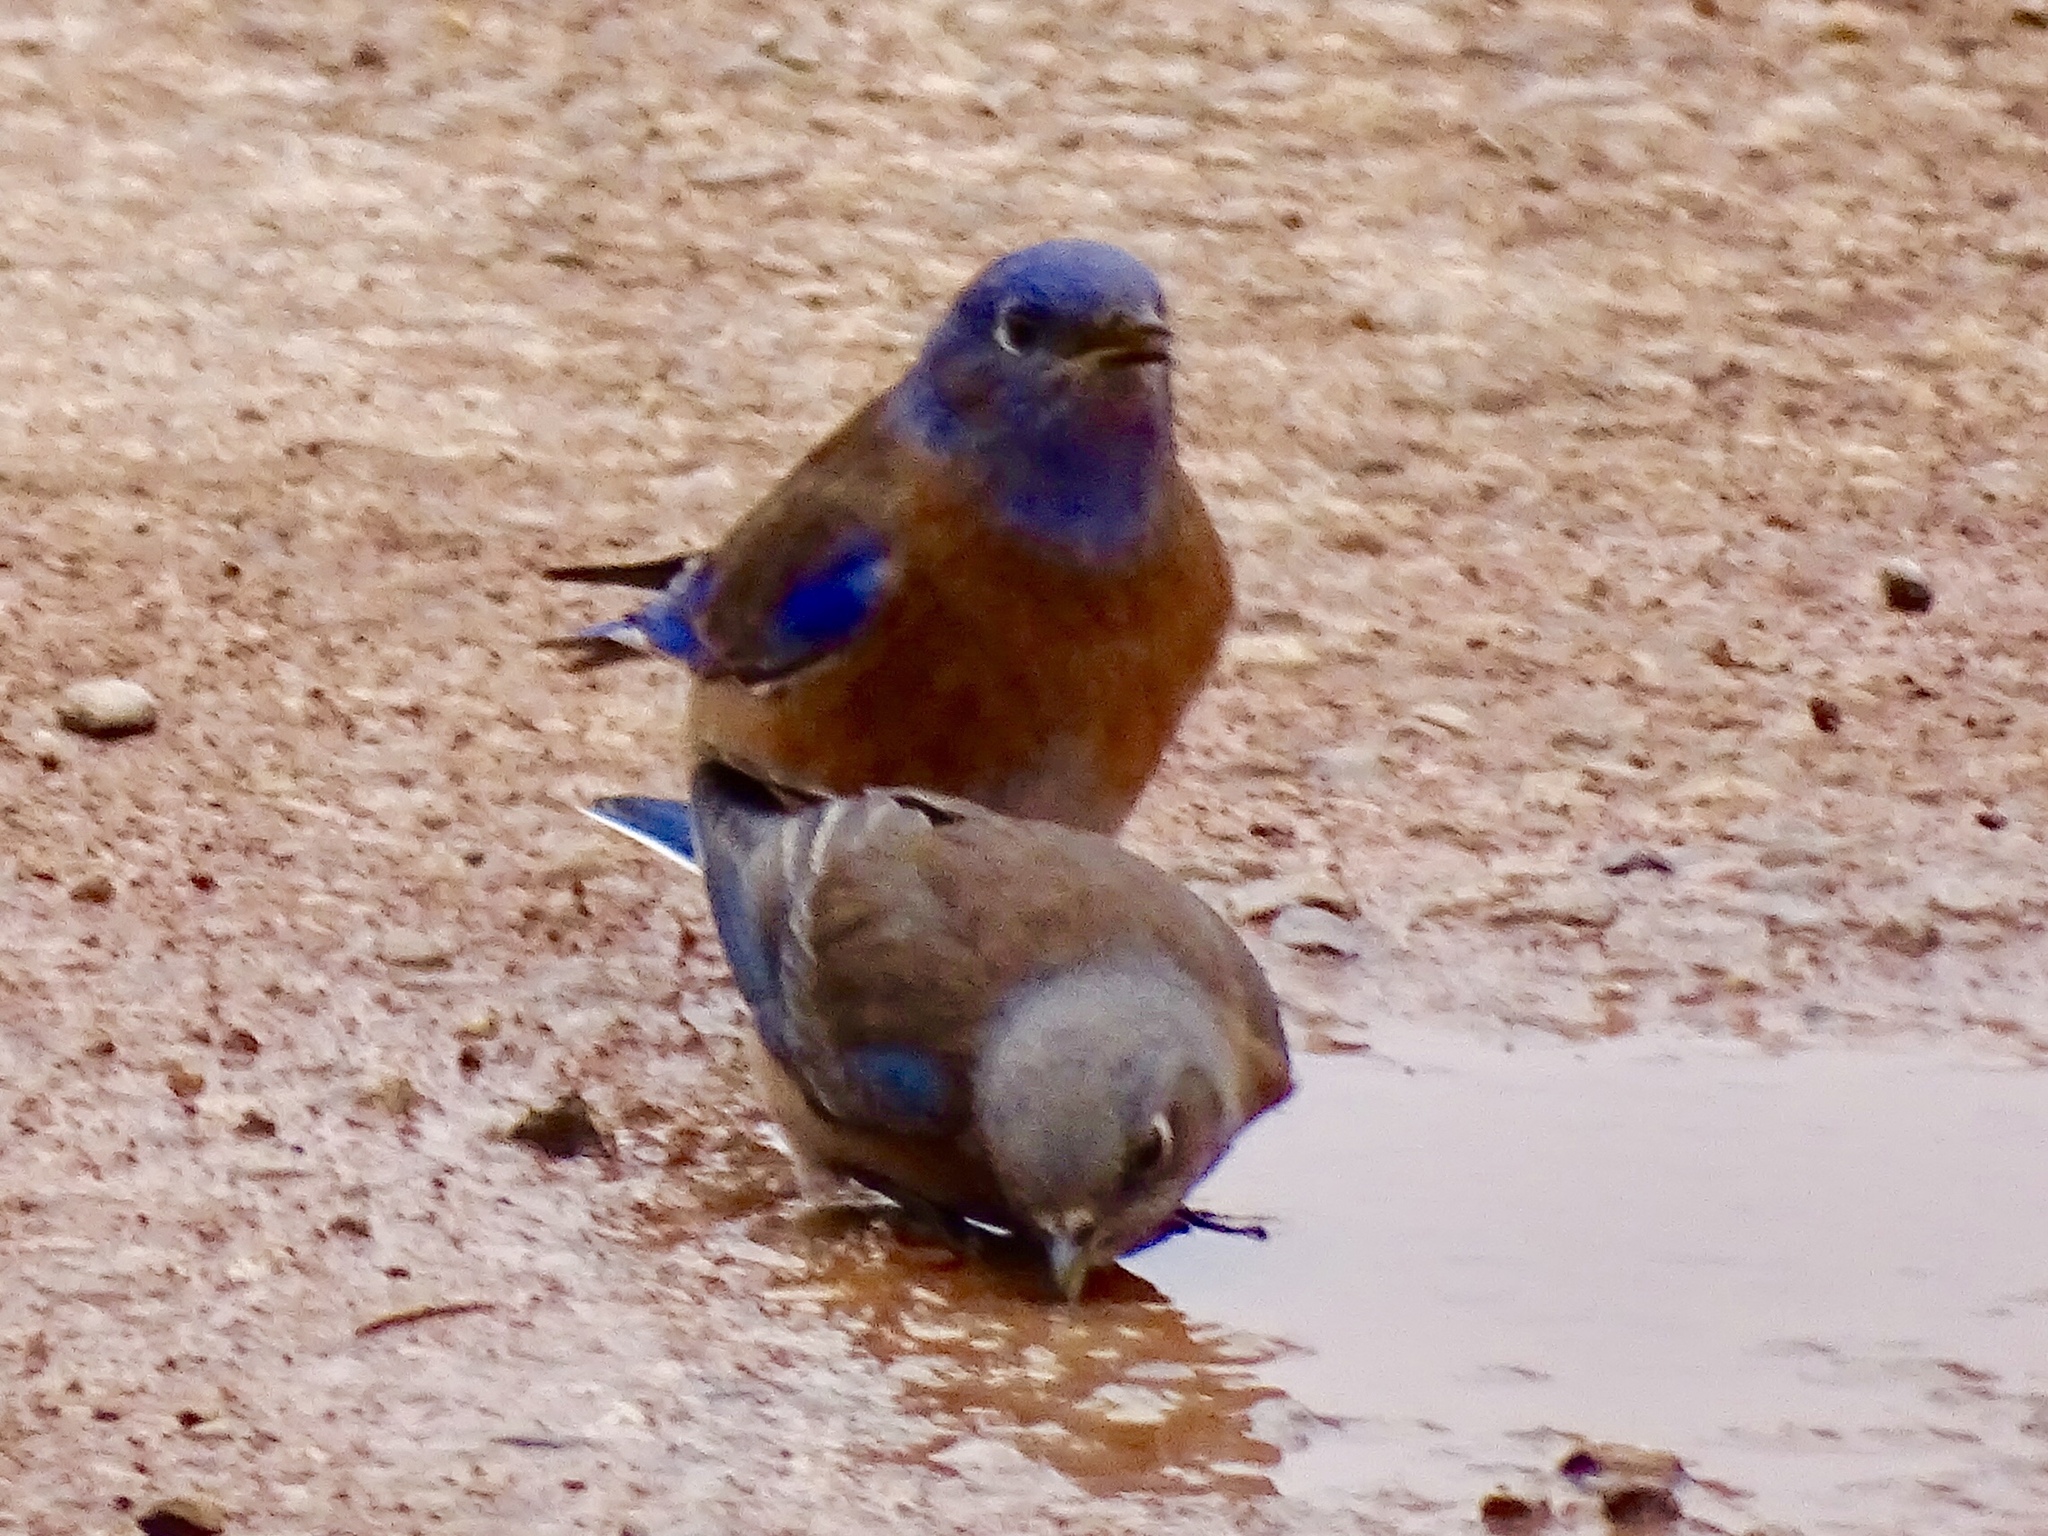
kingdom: Animalia
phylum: Chordata
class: Aves
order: Passeriformes
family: Turdidae
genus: Sialia
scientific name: Sialia mexicana
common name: Western bluebird
